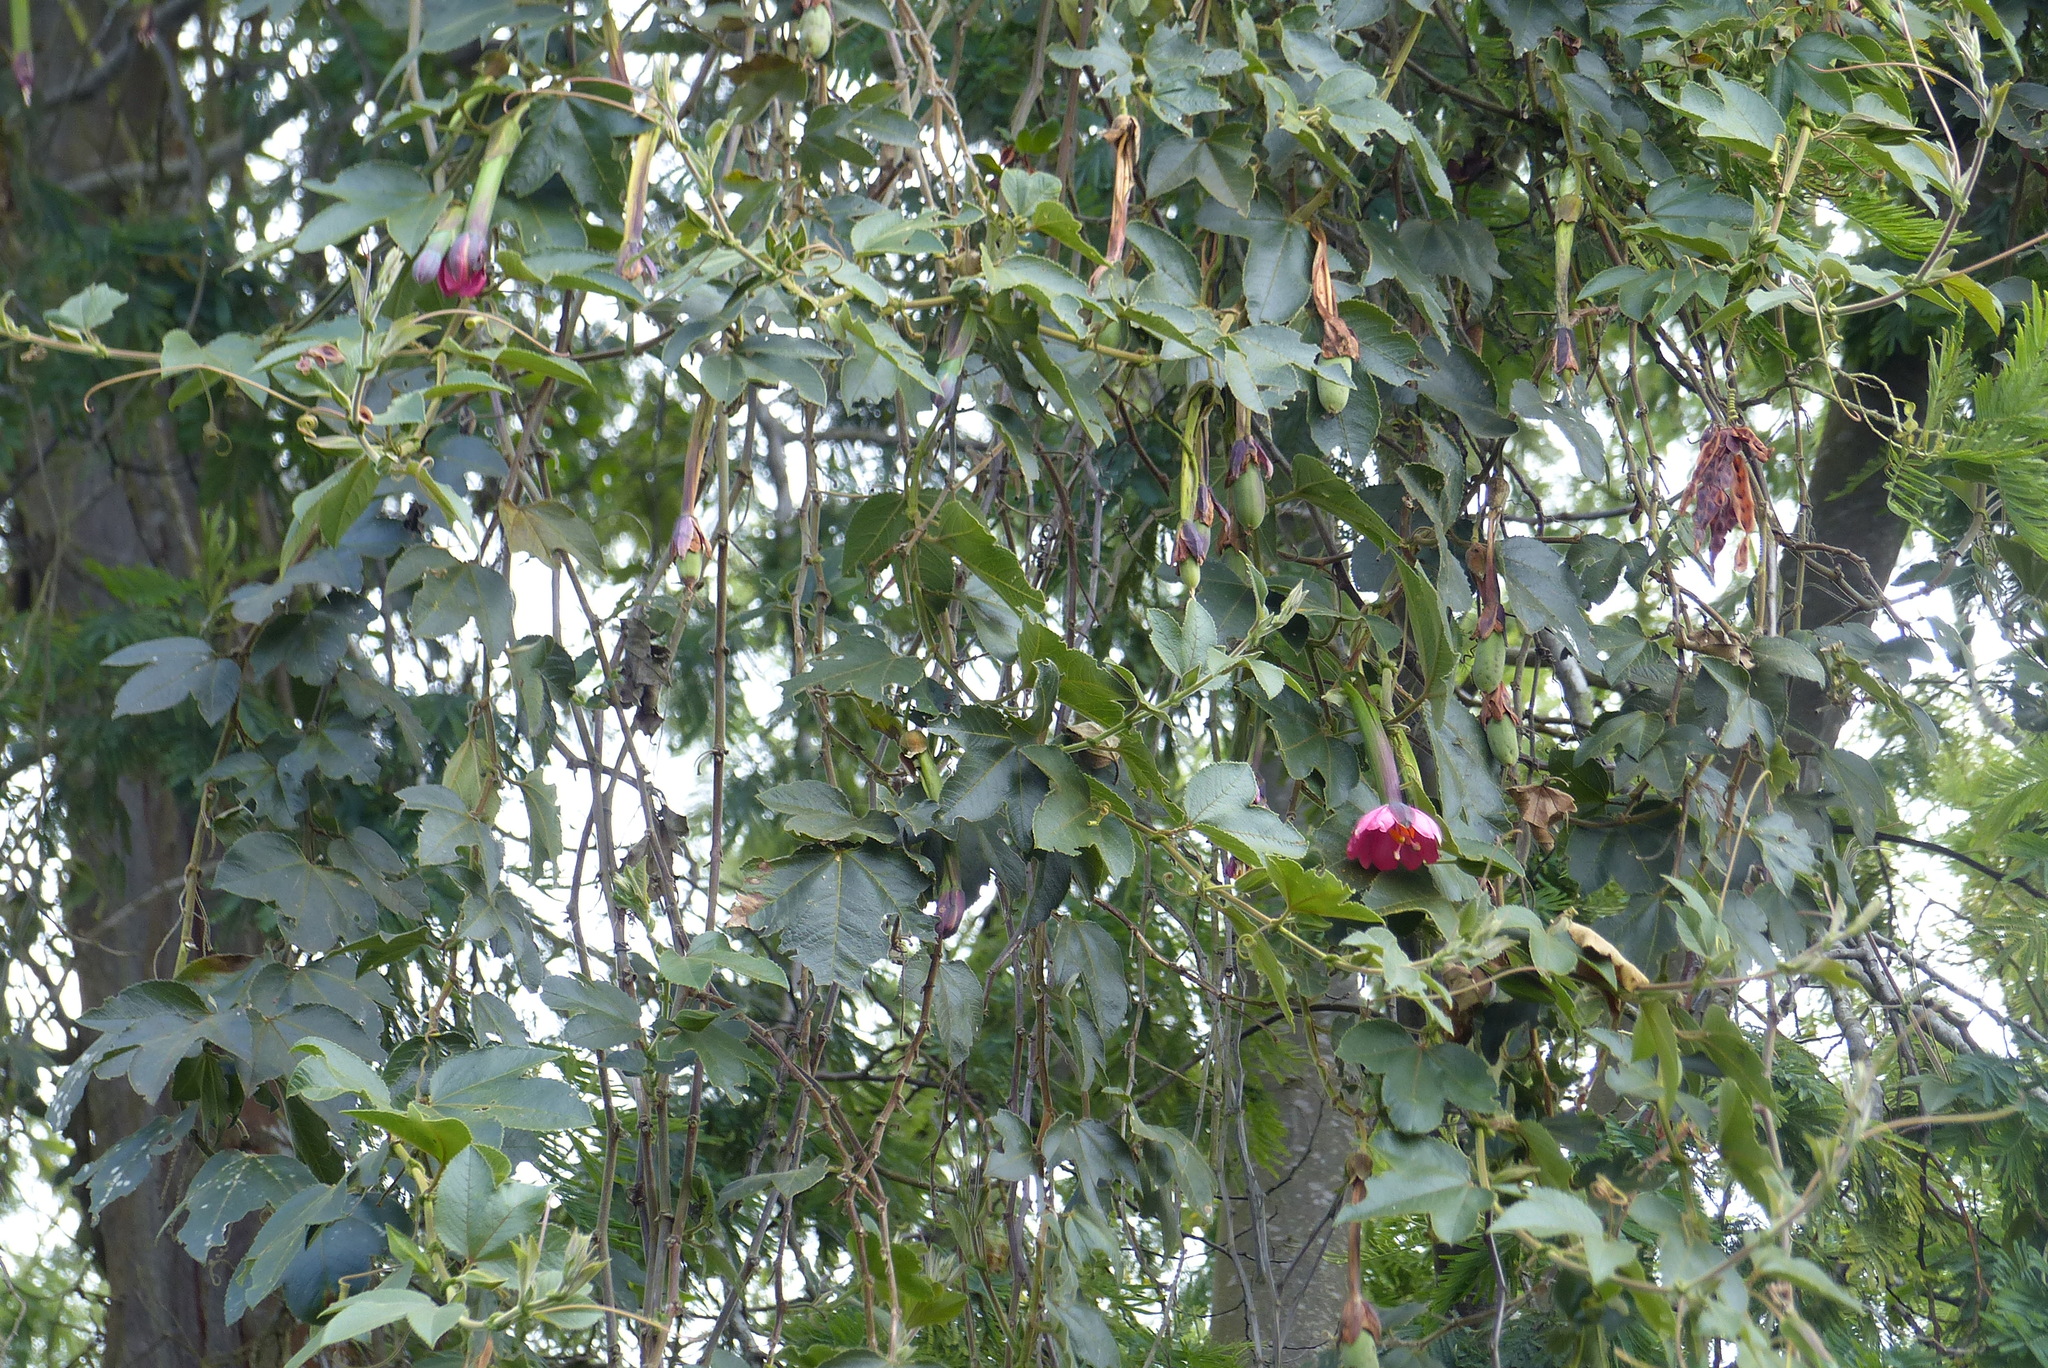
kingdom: Plantae
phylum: Tracheophyta
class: Magnoliopsida
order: Malpighiales
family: Passifloraceae
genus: Passiflora
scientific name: Passiflora tripartita
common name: Banana poka
